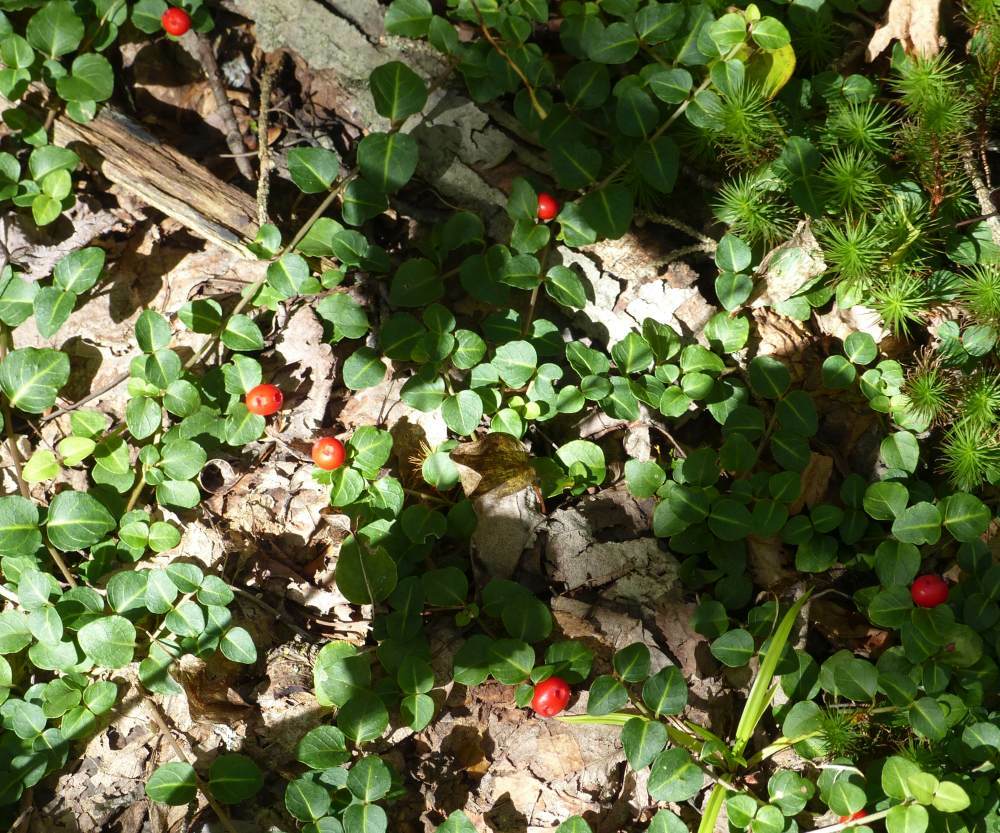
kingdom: Plantae
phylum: Tracheophyta
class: Magnoliopsida
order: Gentianales
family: Rubiaceae
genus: Mitchella
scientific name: Mitchella repens
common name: Partridge-berry
